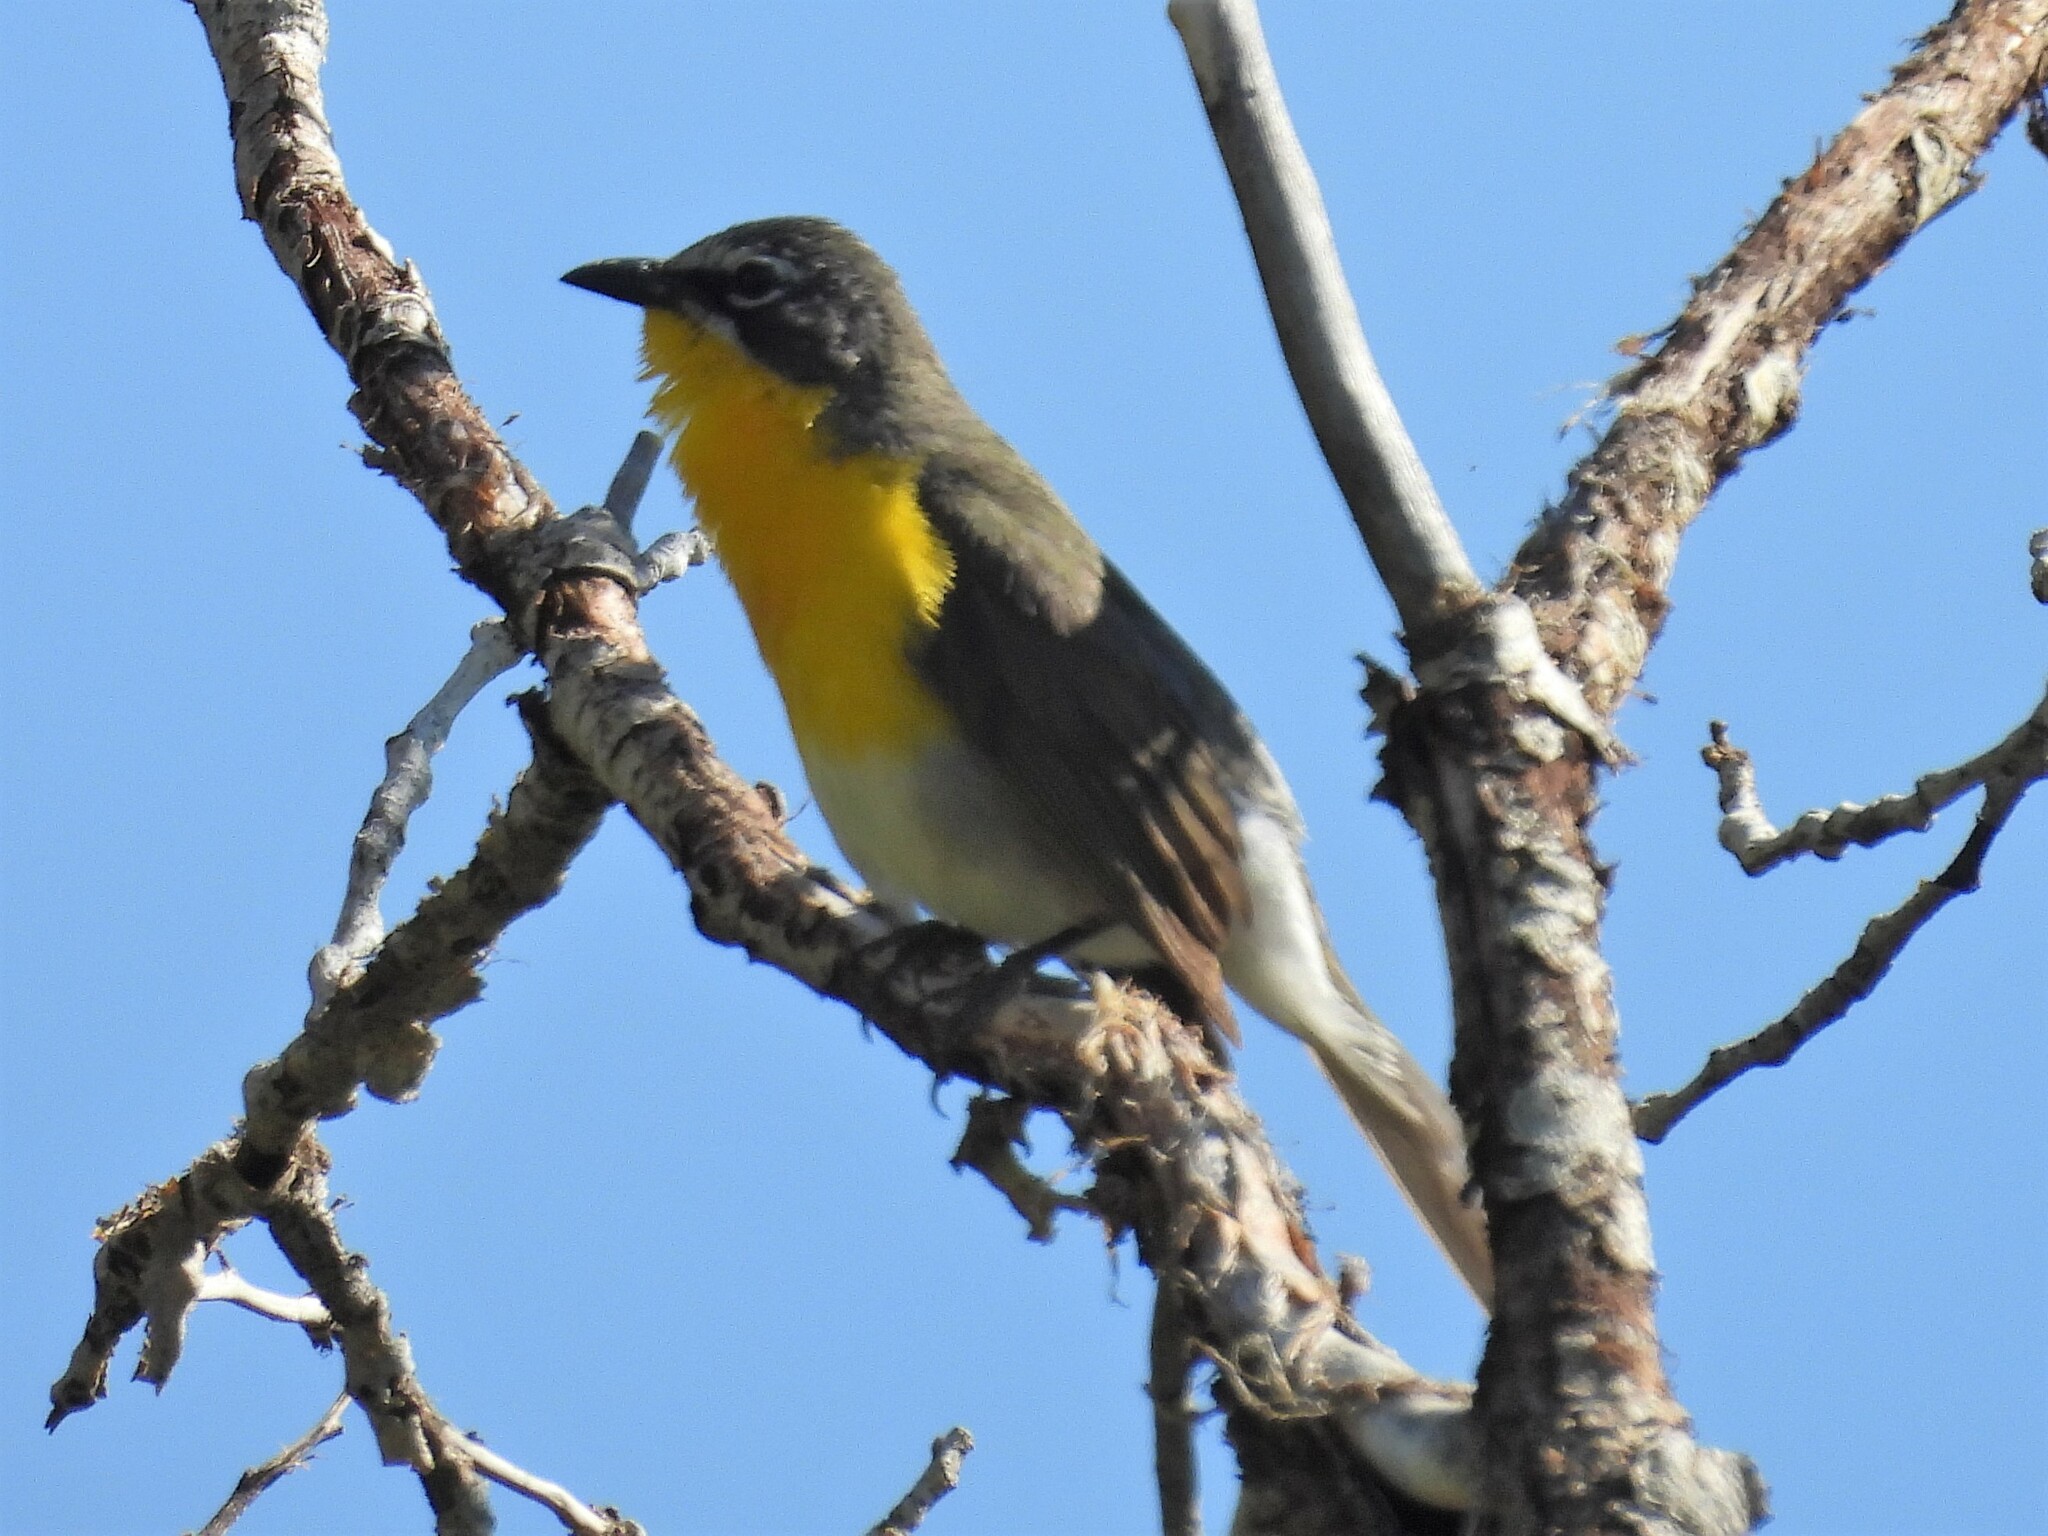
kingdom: Animalia
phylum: Chordata
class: Aves
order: Passeriformes
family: Parulidae
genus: Icteria
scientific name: Icteria virens
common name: Yellow-breasted chat
